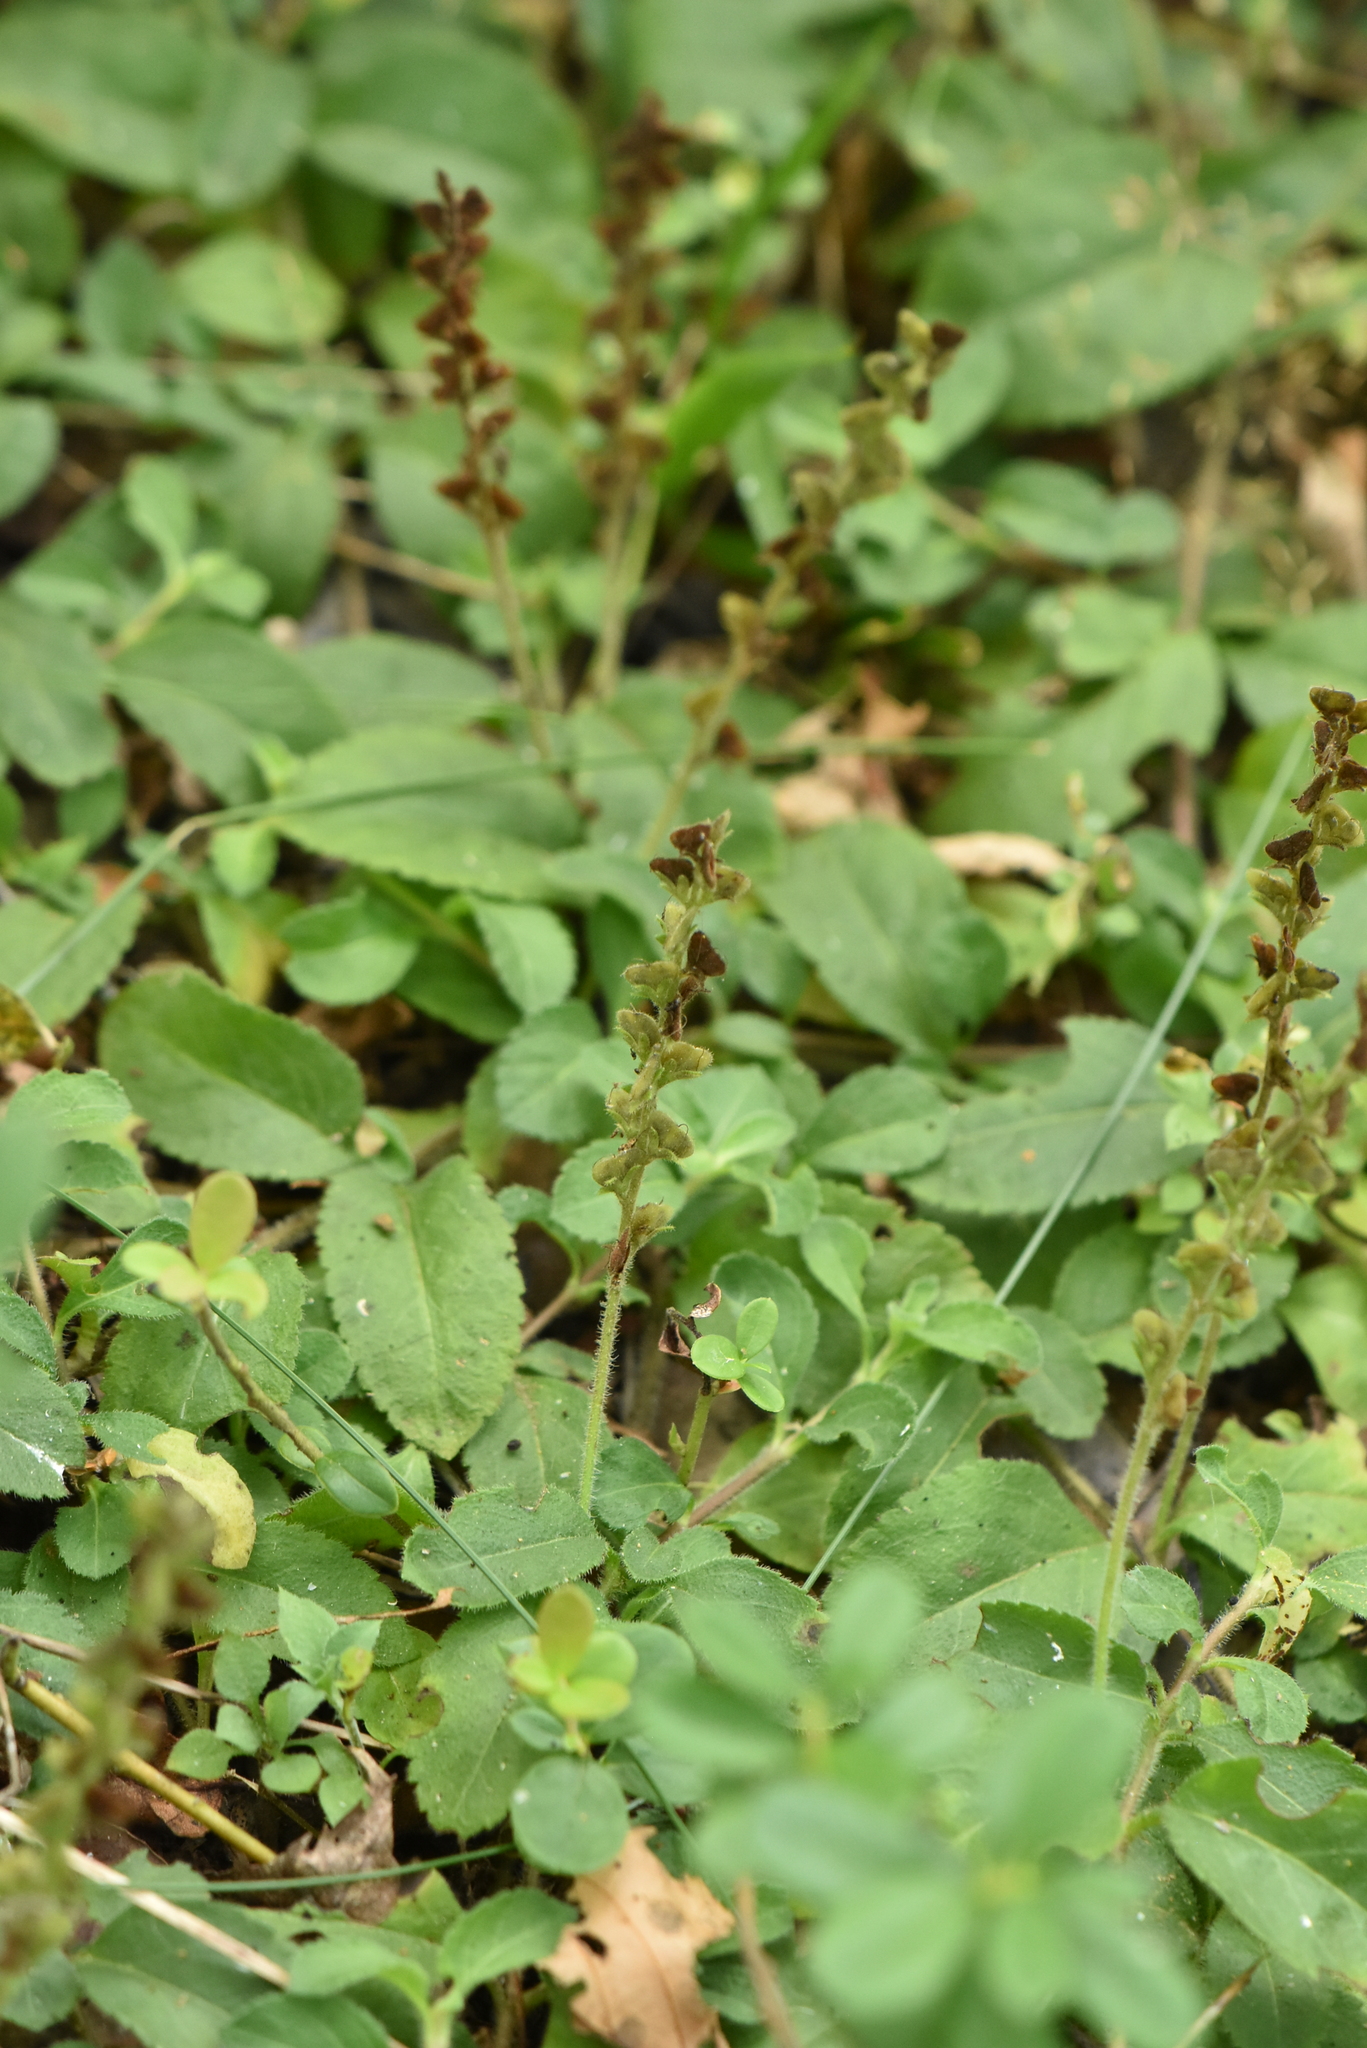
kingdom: Plantae
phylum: Tracheophyta
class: Magnoliopsida
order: Lamiales
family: Plantaginaceae
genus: Veronica
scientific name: Veronica officinalis
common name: Common speedwell
